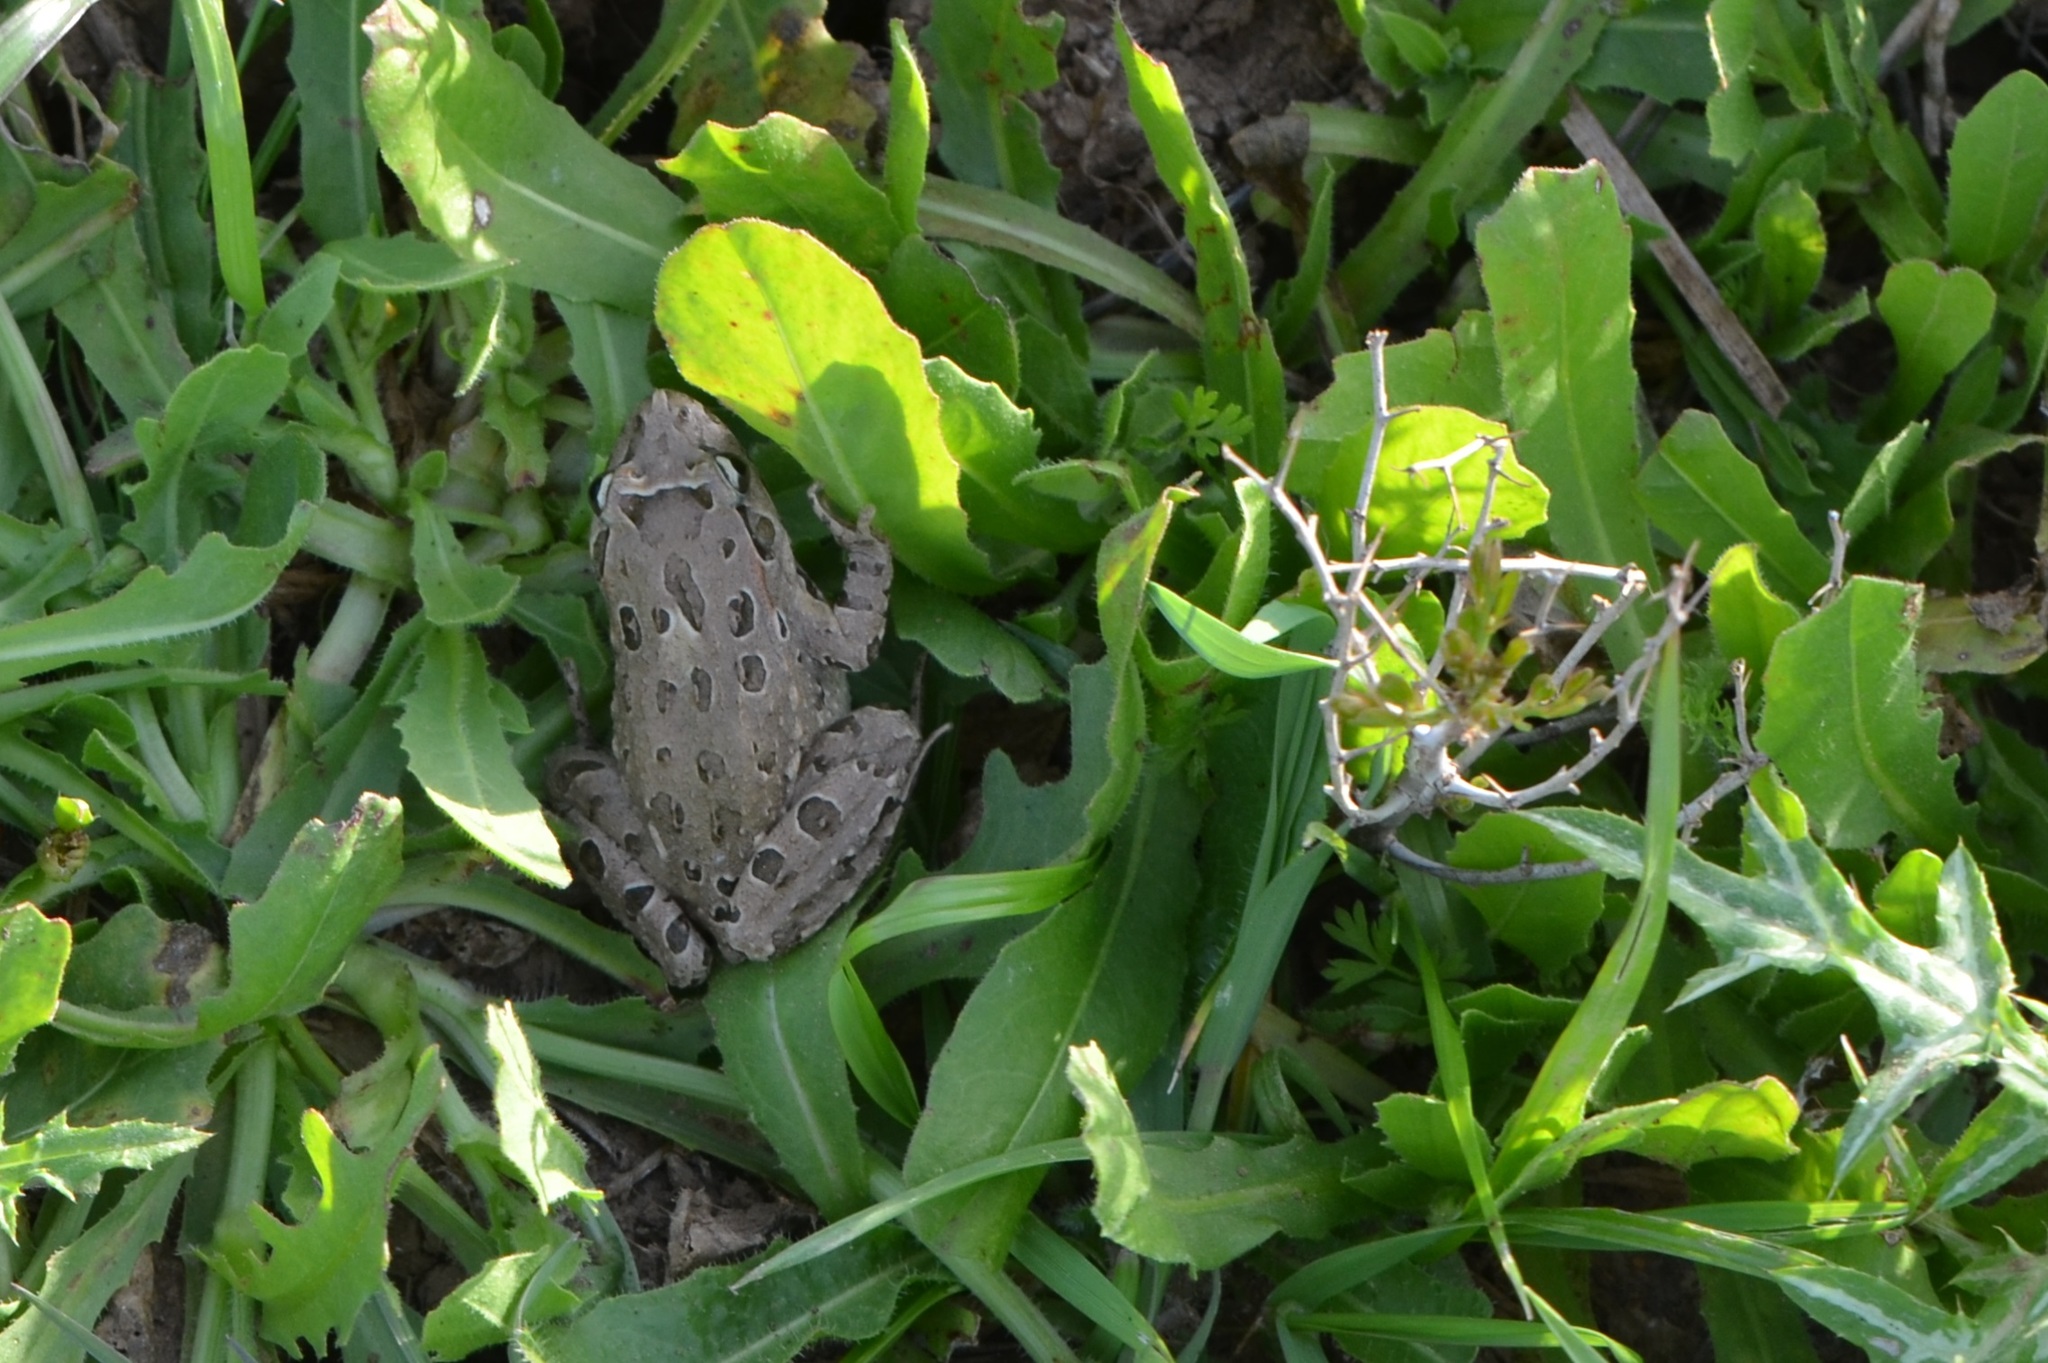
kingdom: Animalia
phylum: Chordata
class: Amphibia
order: Anura
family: Alytidae
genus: Discoglossus
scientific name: Discoglossus pictus
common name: Painted frog
